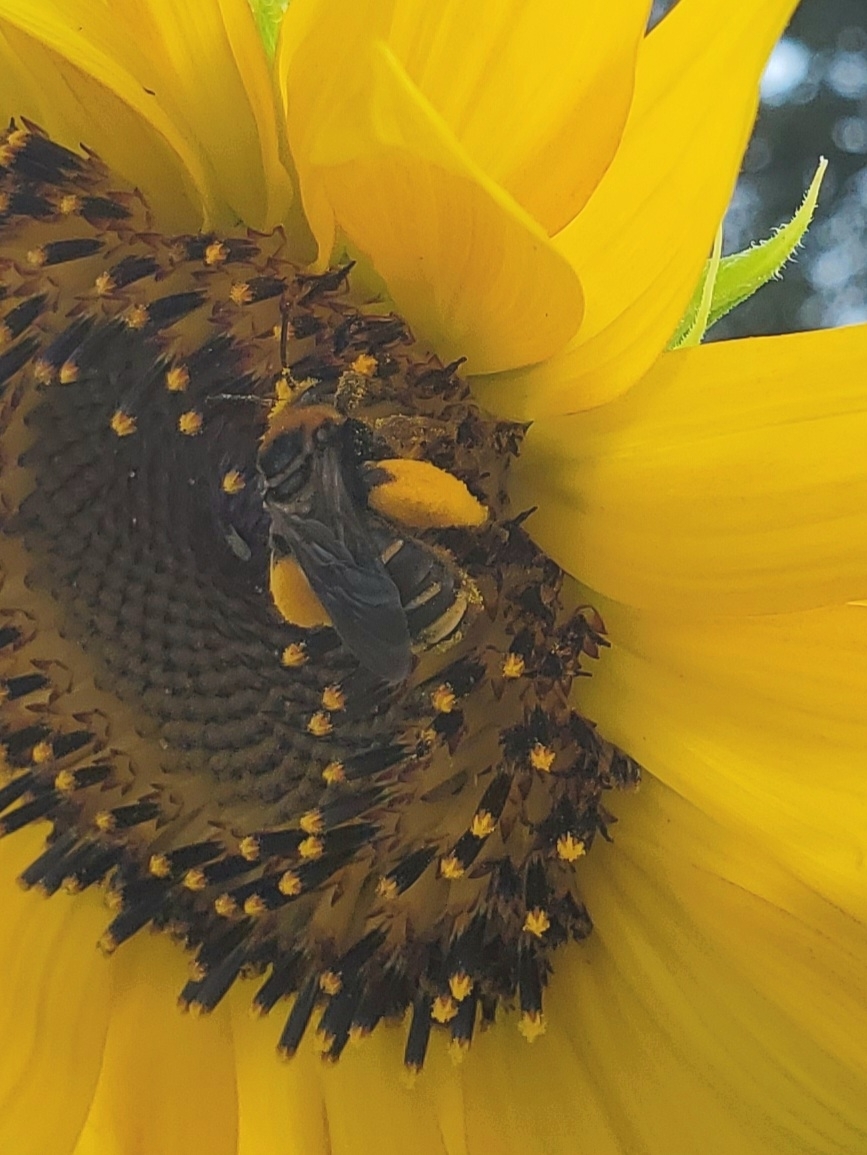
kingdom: Animalia
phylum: Arthropoda
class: Insecta
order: Hymenoptera
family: Apidae
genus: Svastra
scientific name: Svastra obliqua
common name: Oblique longhorn
